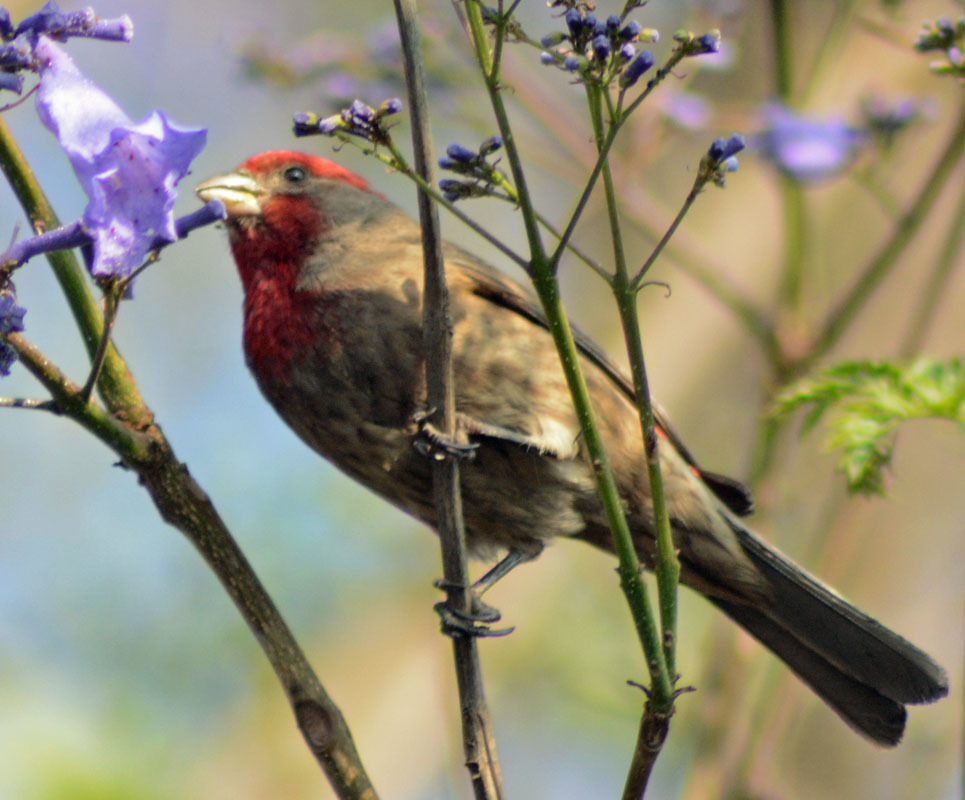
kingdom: Animalia
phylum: Chordata
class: Aves
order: Passeriformes
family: Fringillidae
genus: Haemorhous
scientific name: Haemorhous mexicanus
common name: House finch
